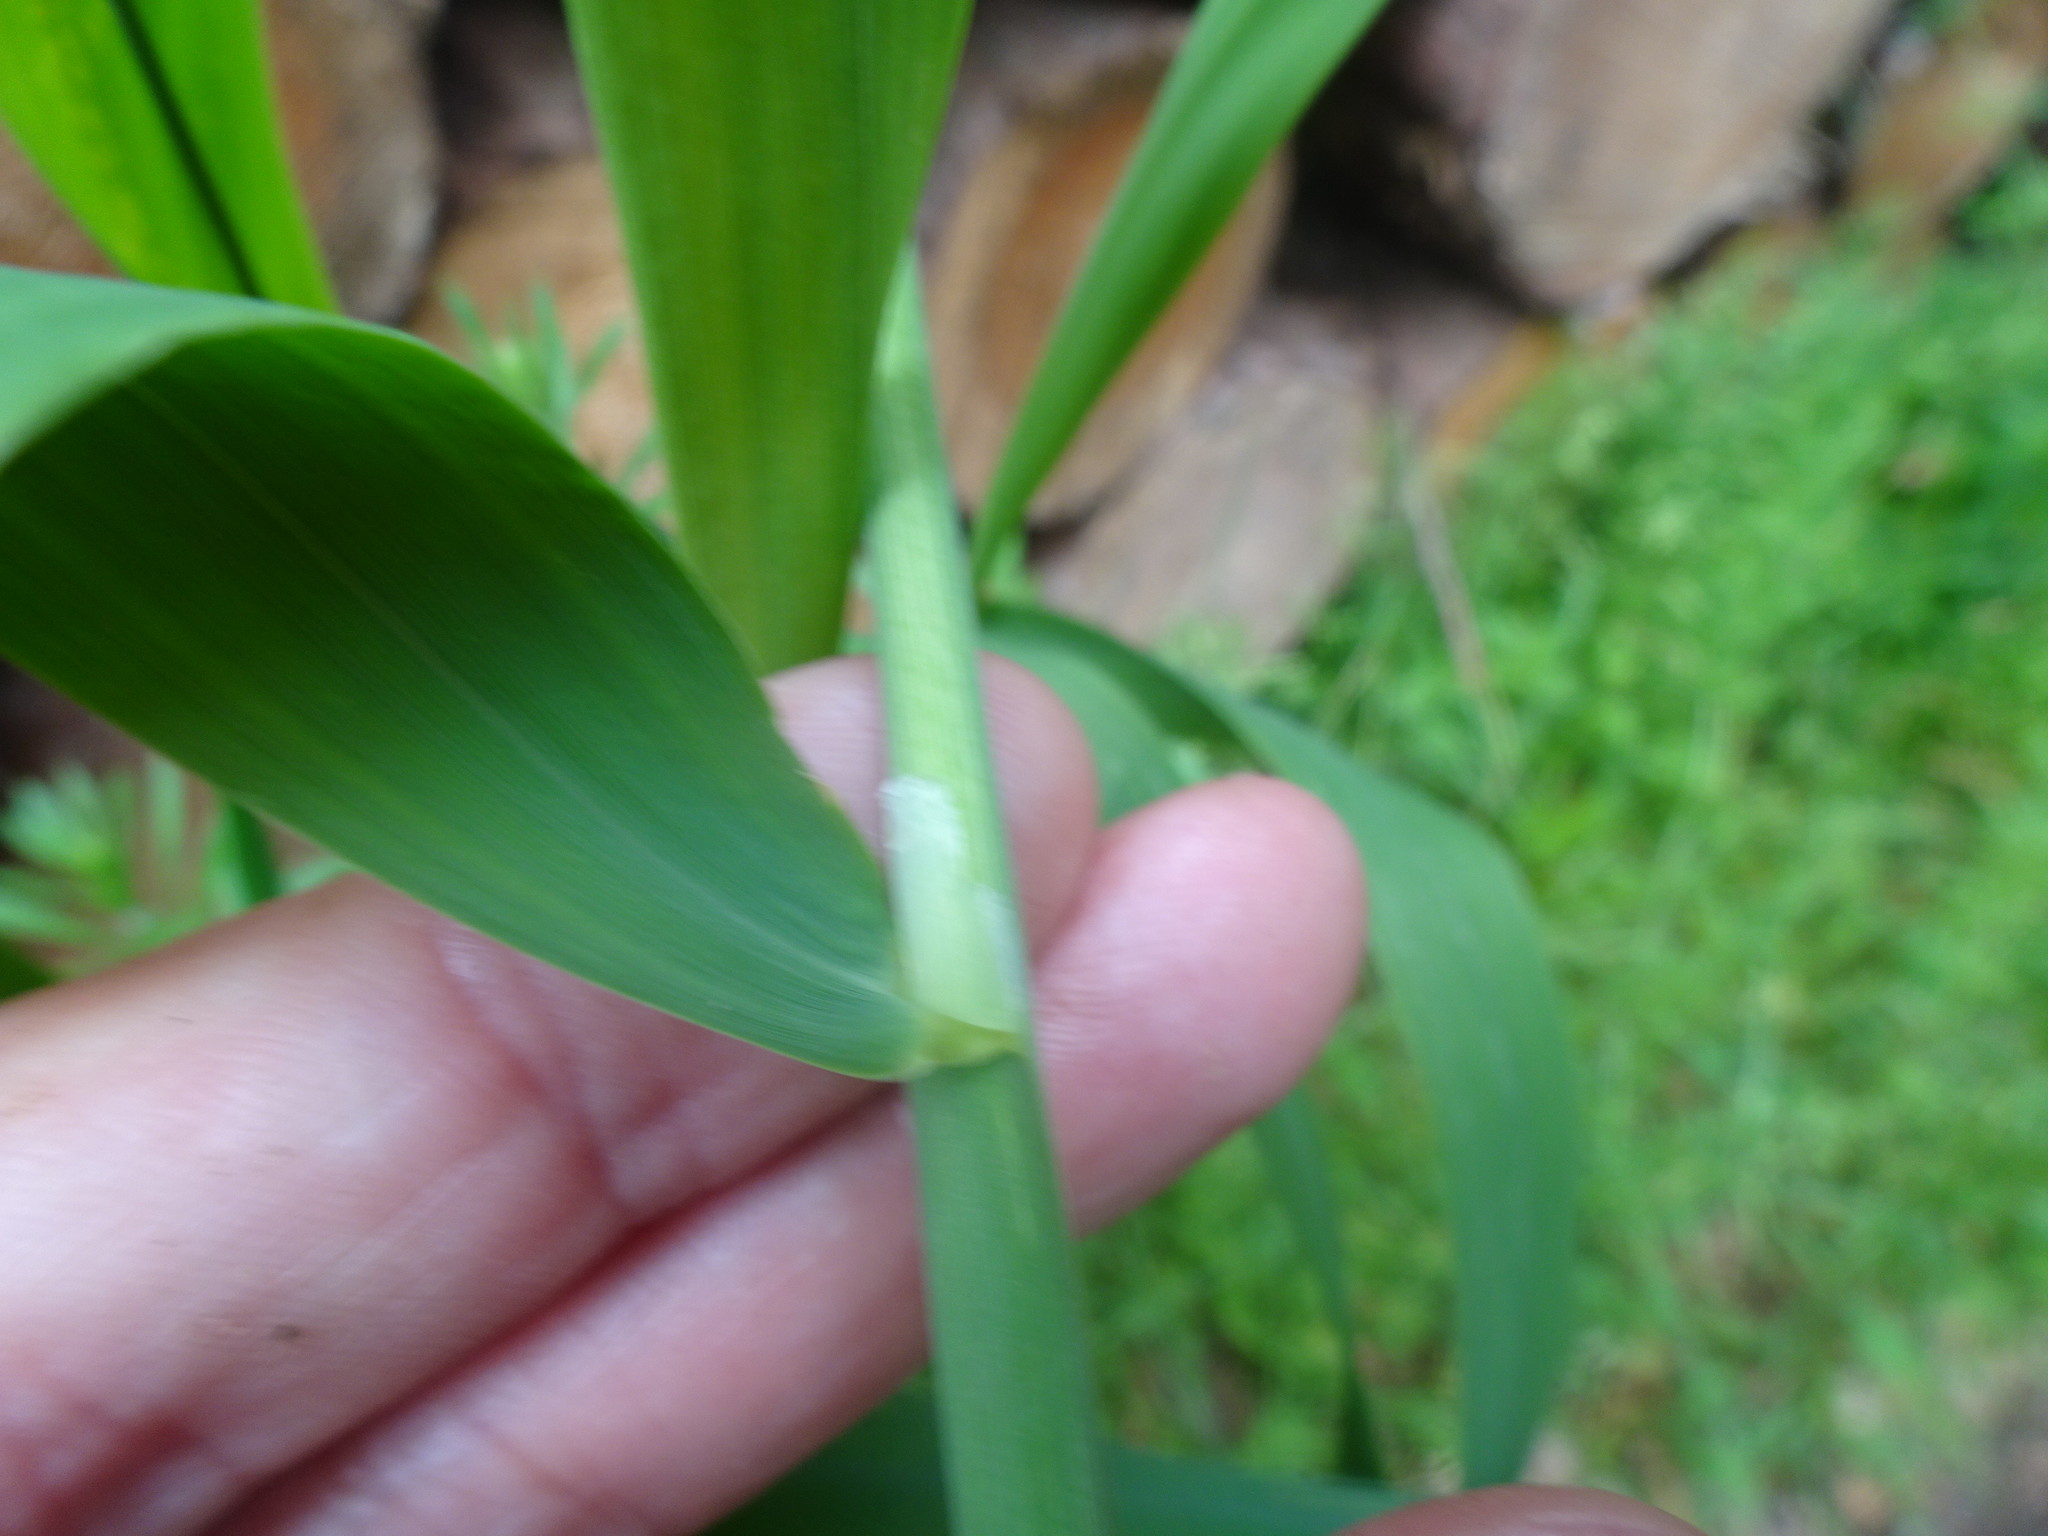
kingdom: Plantae
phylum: Tracheophyta
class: Liliopsida
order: Poales
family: Poaceae
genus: Phalaris
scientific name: Phalaris arundinacea
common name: Reed canary-grass
